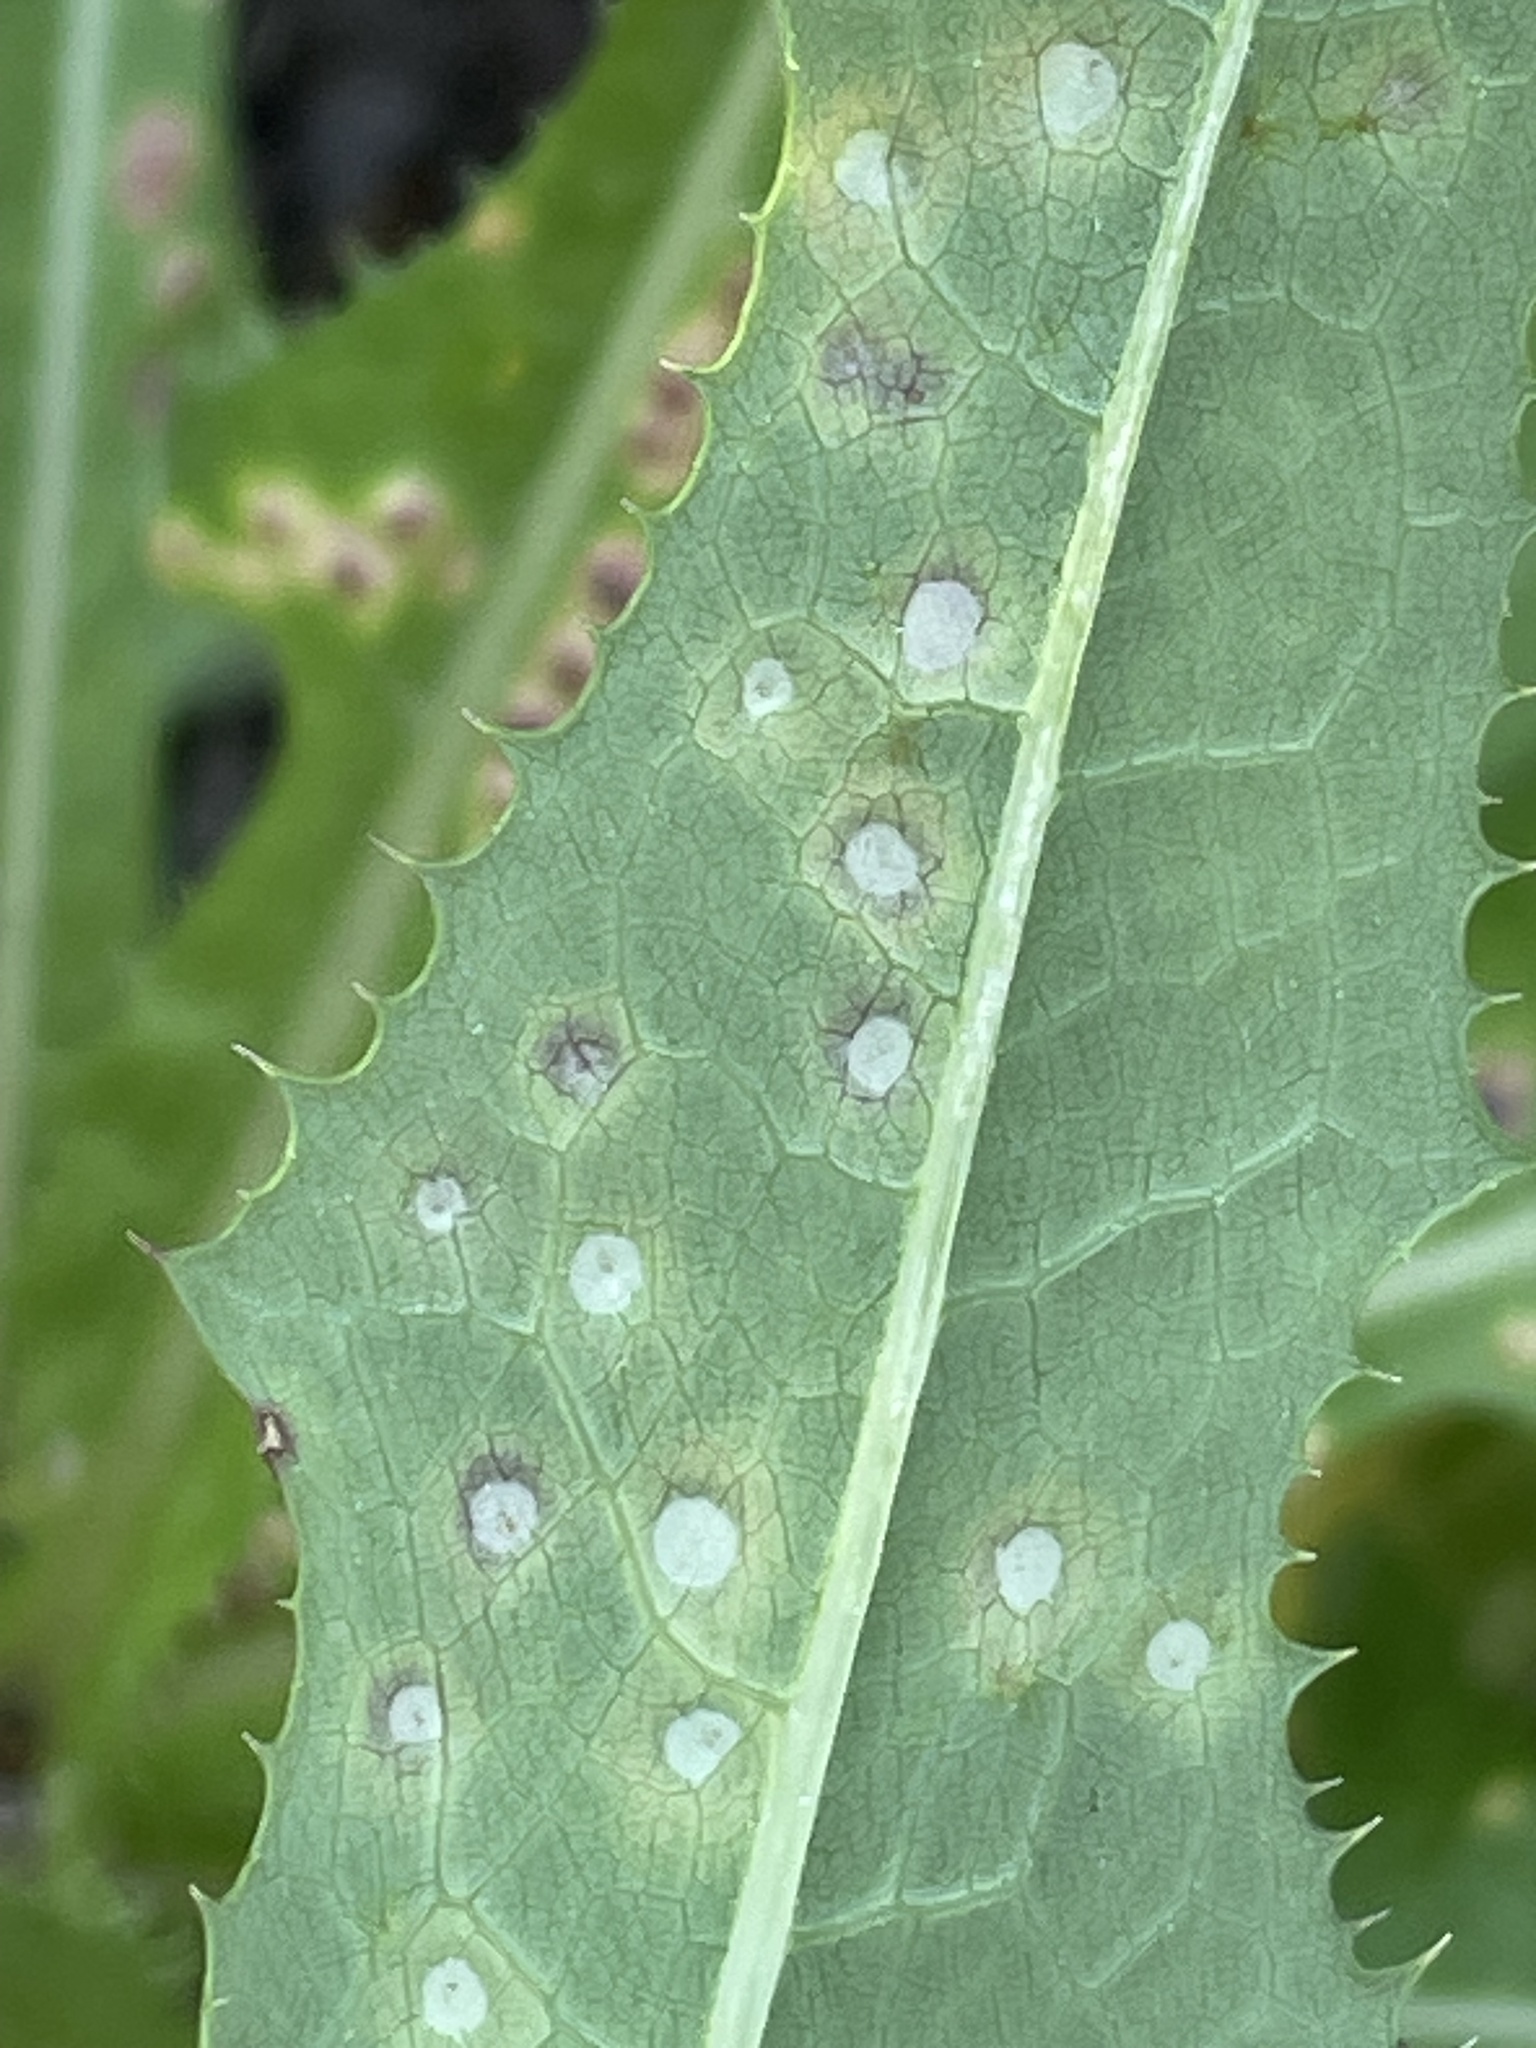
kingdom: Animalia
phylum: Arthropoda
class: Insecta
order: Diptera
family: Cecidomyiidae
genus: Cystiphora
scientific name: Cystiphora sonchi
